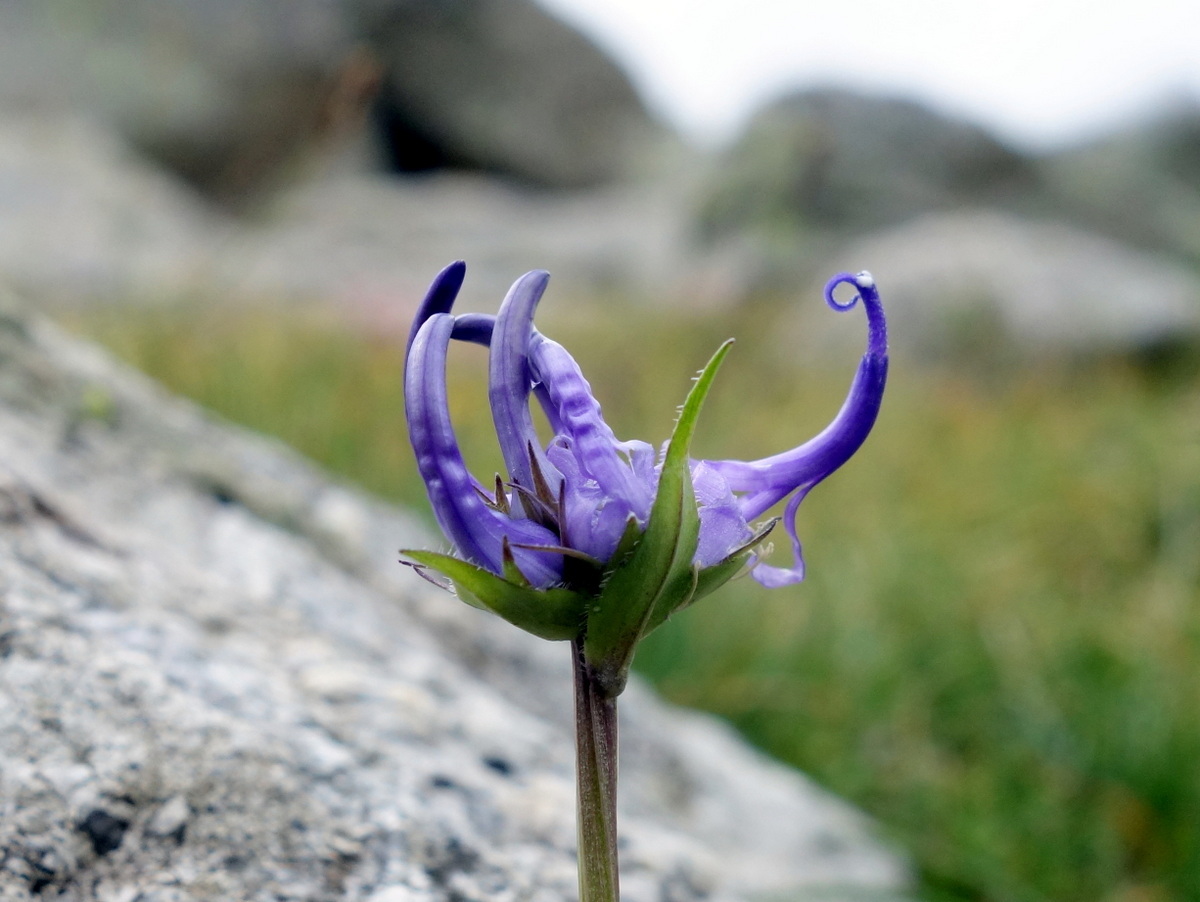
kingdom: Plantae
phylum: Tracheophyta
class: Magnoliopsida
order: Asterales
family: Campanulaceae
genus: Phyteuma
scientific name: Phyteuma hemisphaericum
